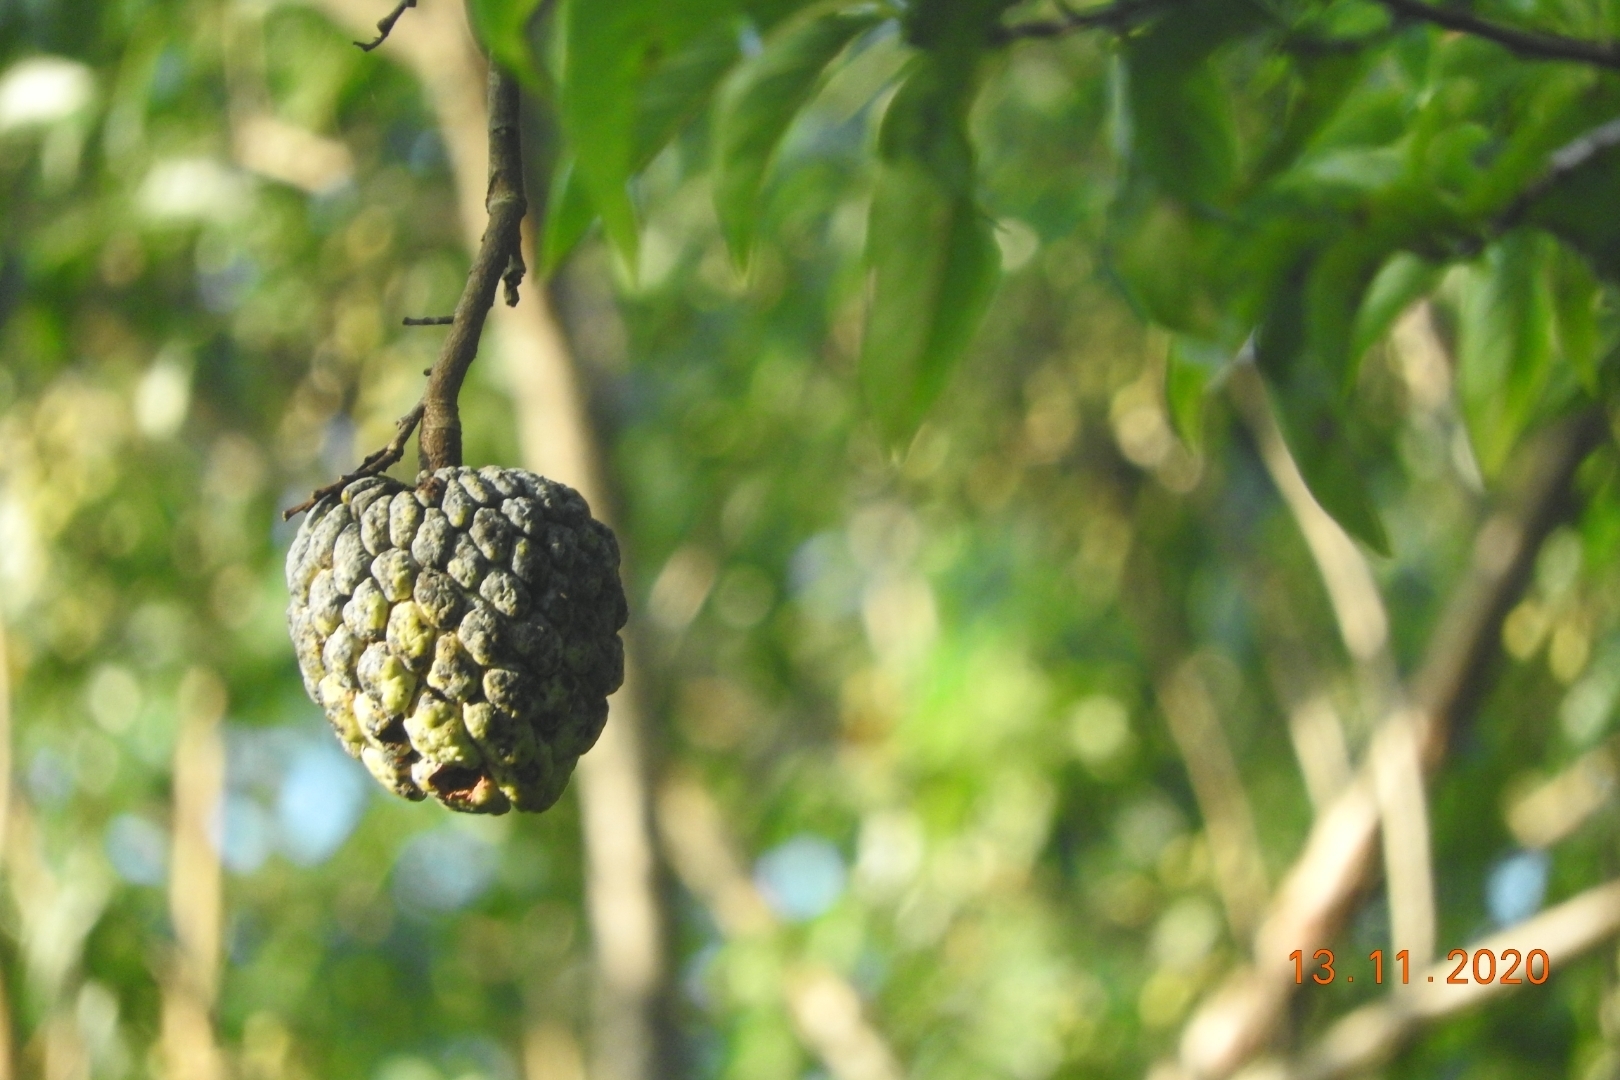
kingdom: Plantae
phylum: Tracheophyta
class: Magnoliopsida
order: Magnoliales
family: Annonaceae
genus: Annona
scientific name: Annona squamosa
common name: Custard-apple
